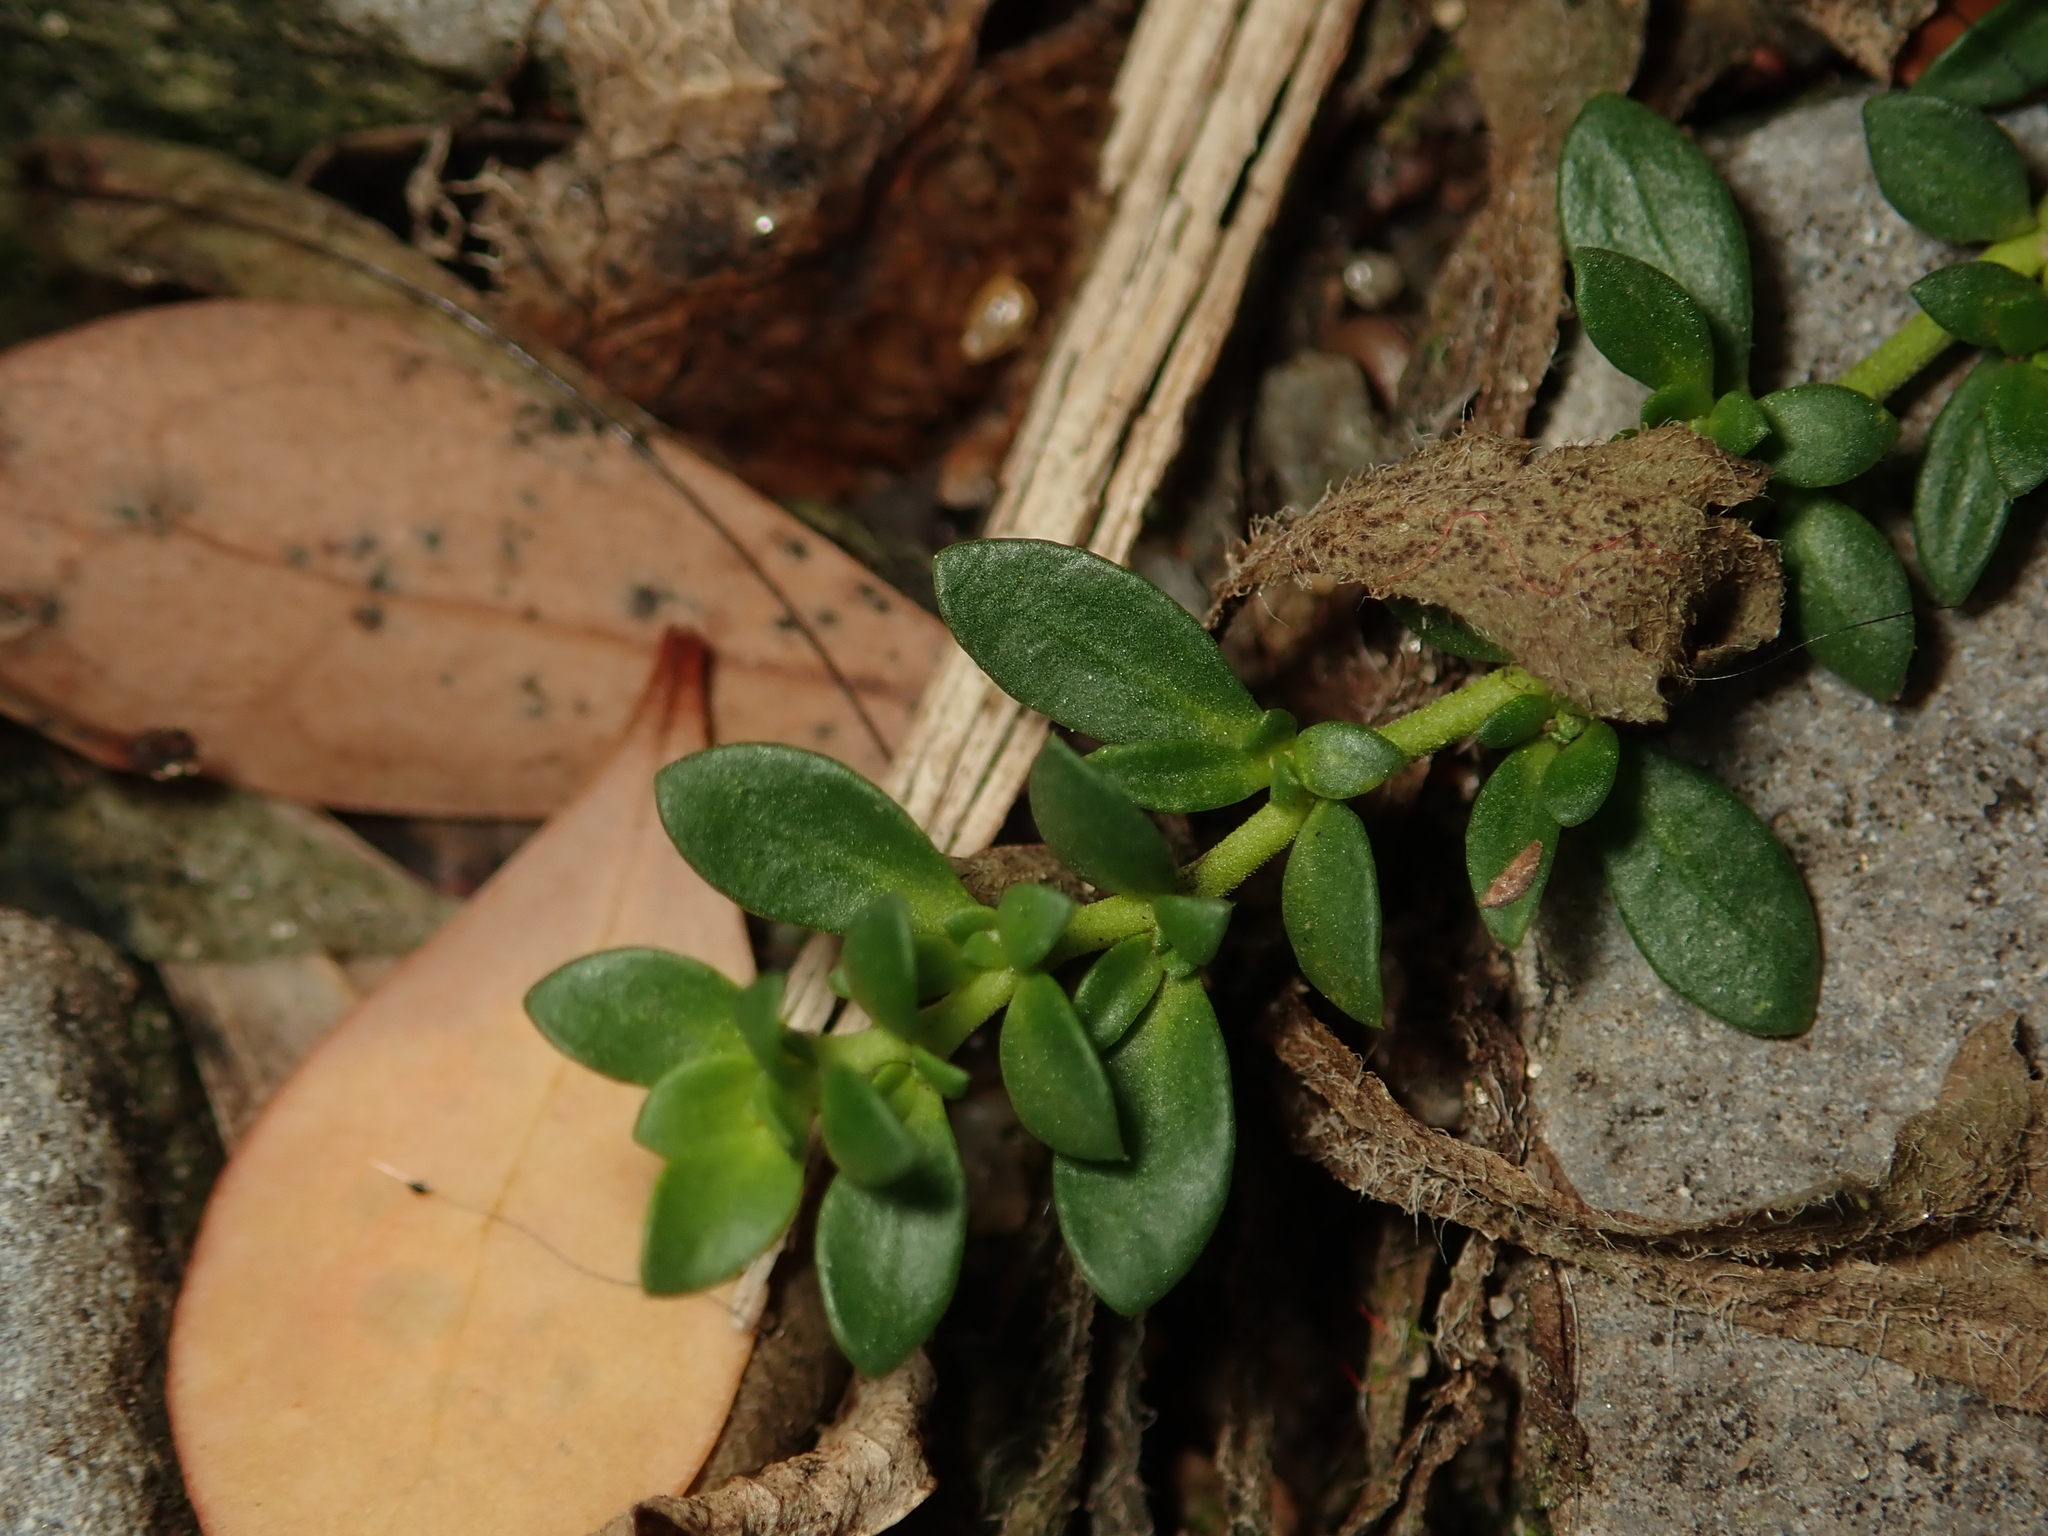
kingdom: Plantae
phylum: Tracheophyta
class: Magnoliopsida
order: Caryophyllales
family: Caryophyllaceae
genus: Herniaria
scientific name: Herniaria glabra
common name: Smooth rupturewort
